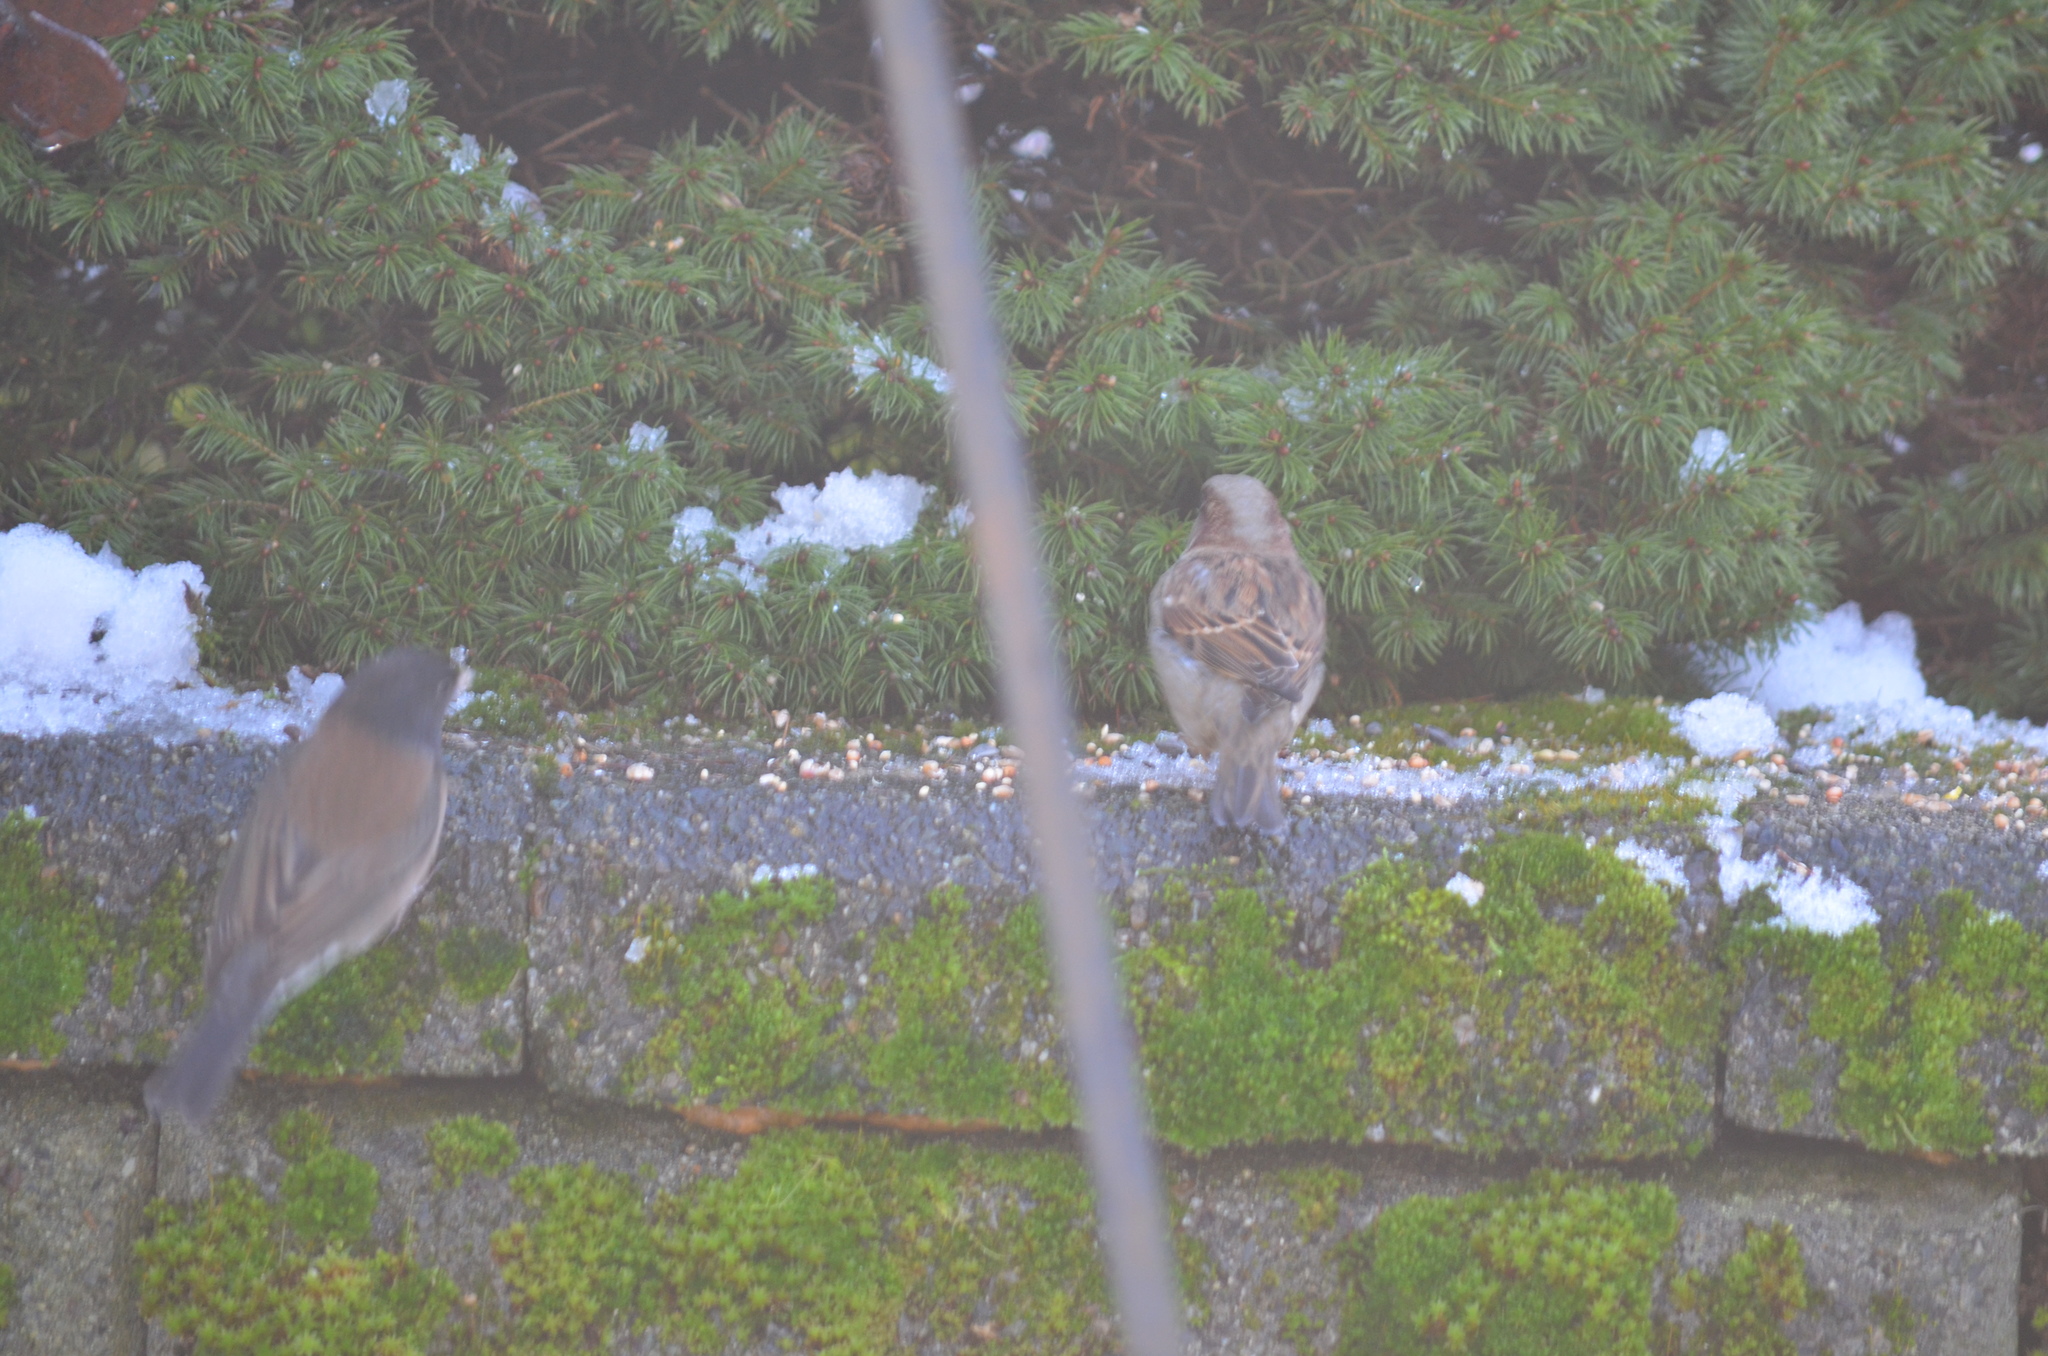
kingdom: Animalia
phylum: Chordata
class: Aves
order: Passeriformes
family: Passeridae
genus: Passer
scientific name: Passer domesticus
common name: House sparrow
